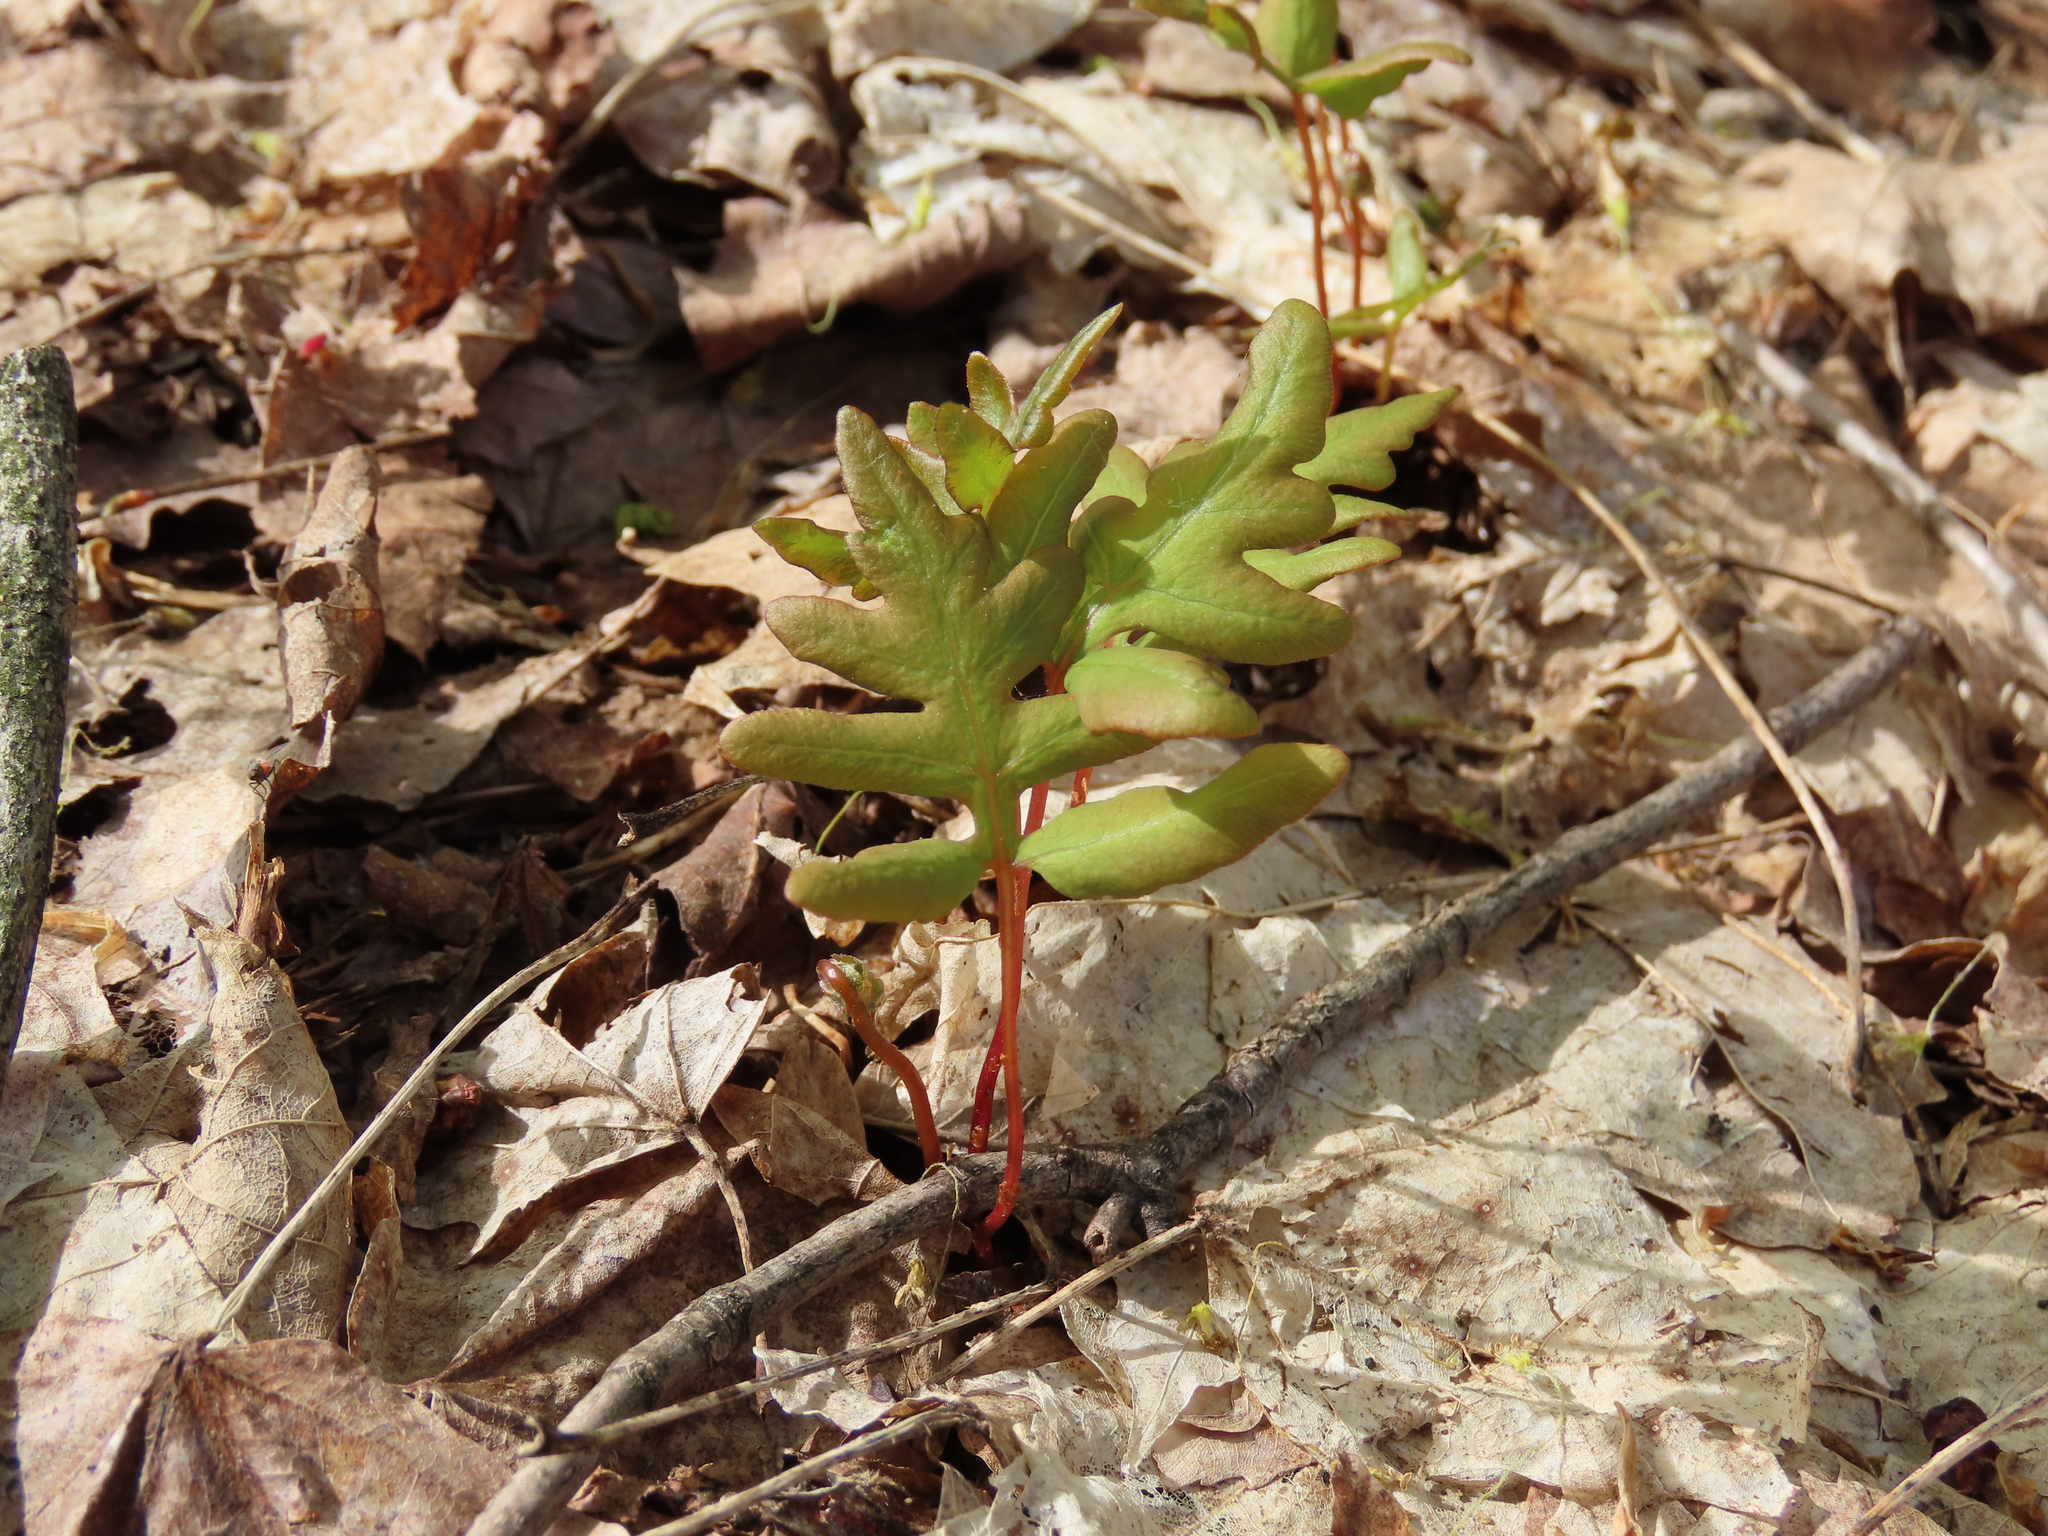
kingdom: Plantae
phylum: Tracheophyta
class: Polypodiopsida
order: Polypodiales
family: Onocleaceae
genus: Onoclea
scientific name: Onoclea sensibilis
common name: Sensitive fern
